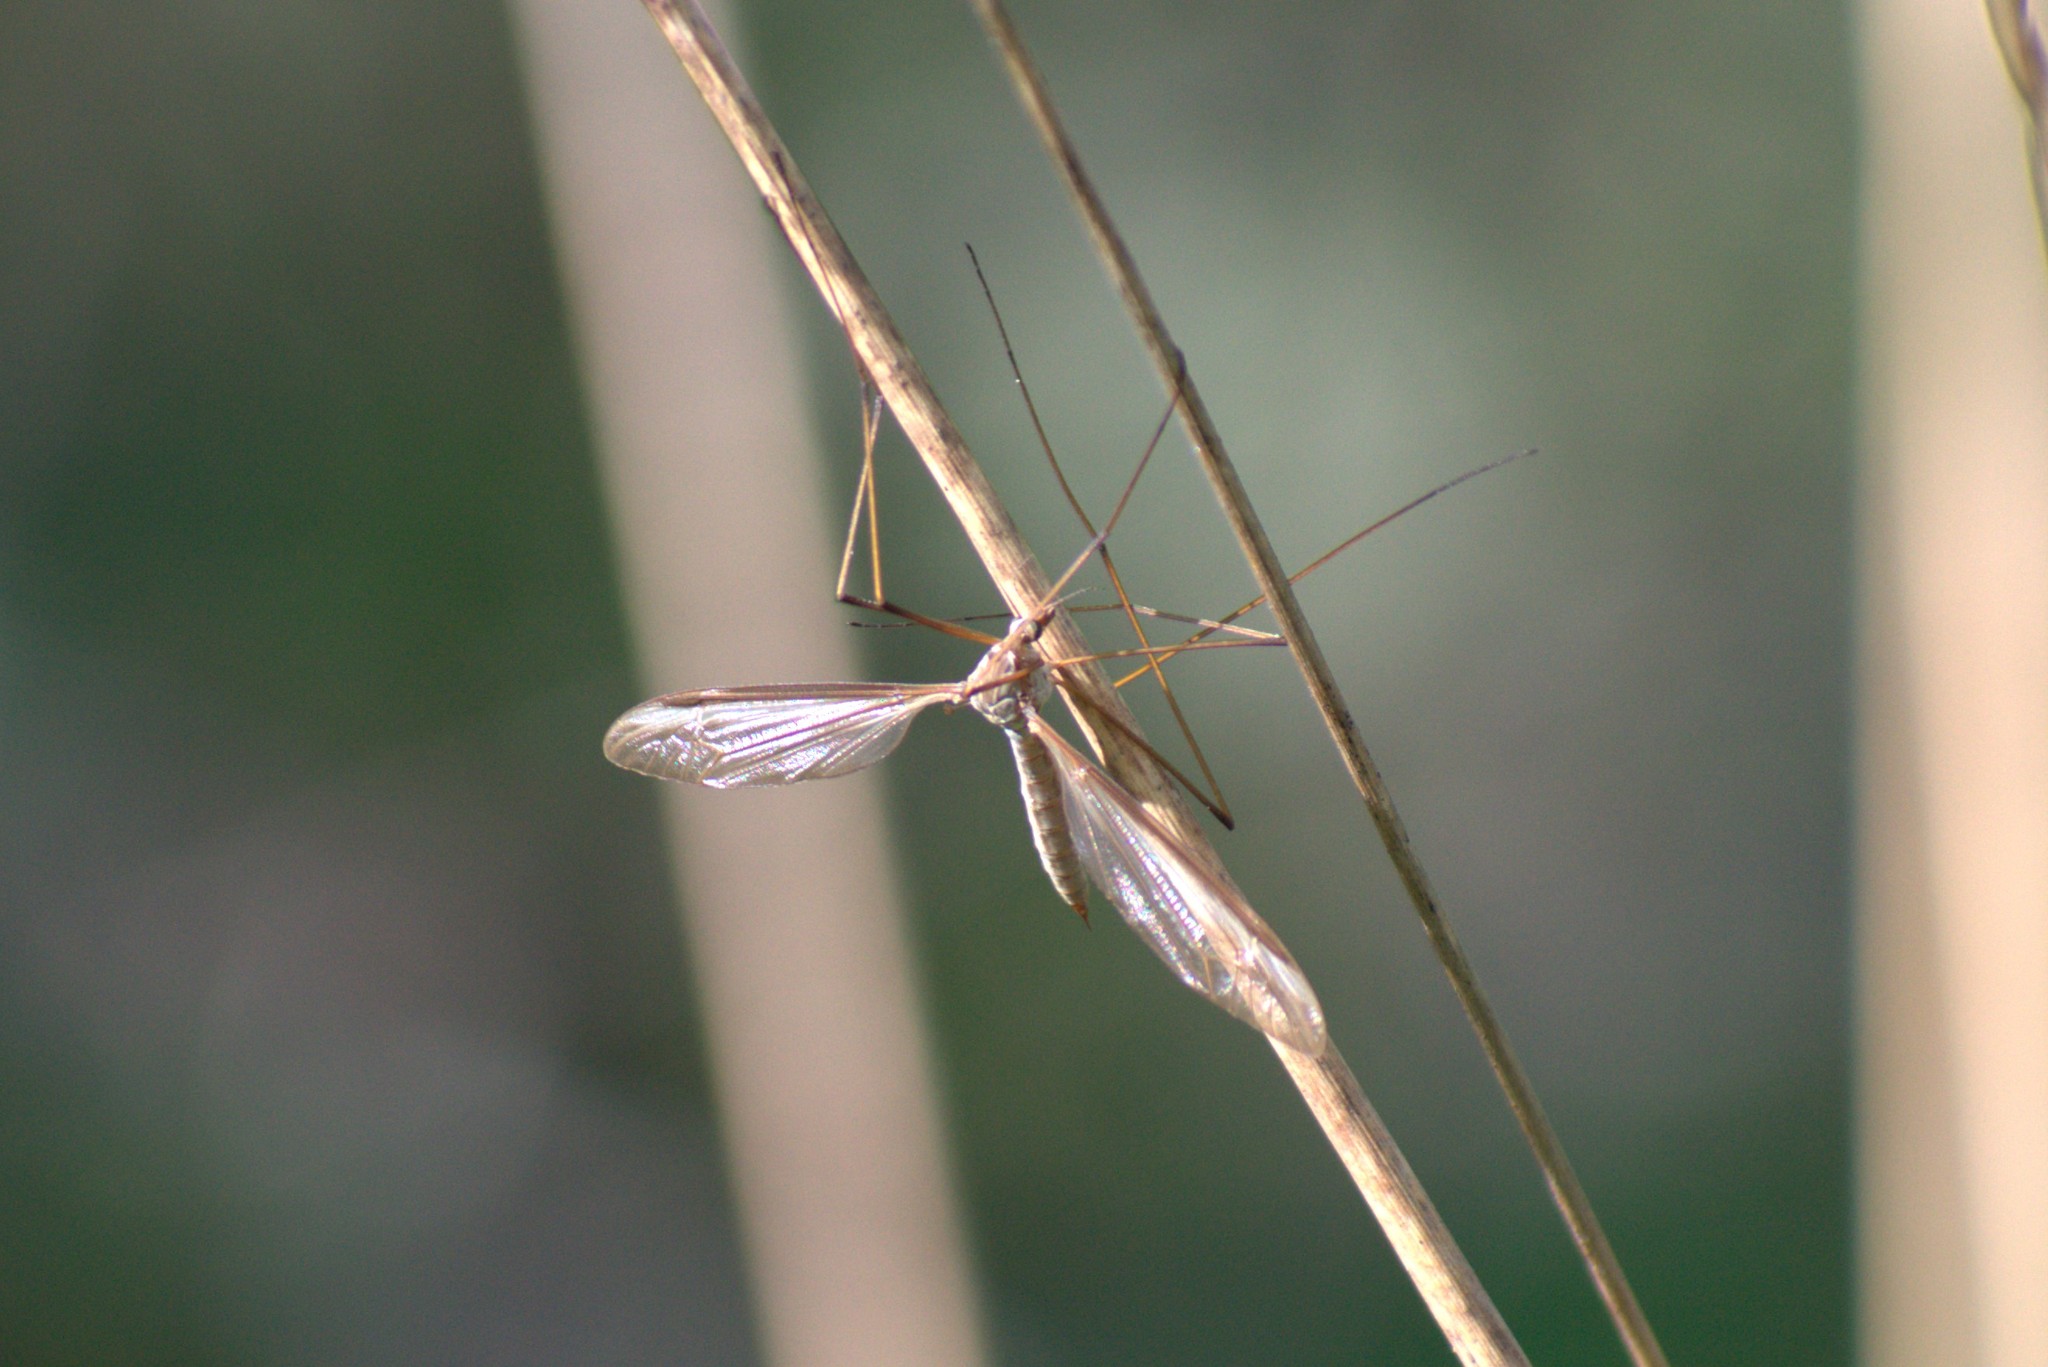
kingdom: Animalia
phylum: Arthropoda
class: Insecta
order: Diptera
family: Tipulidae
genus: Tipula
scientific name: Tipula oleracea
